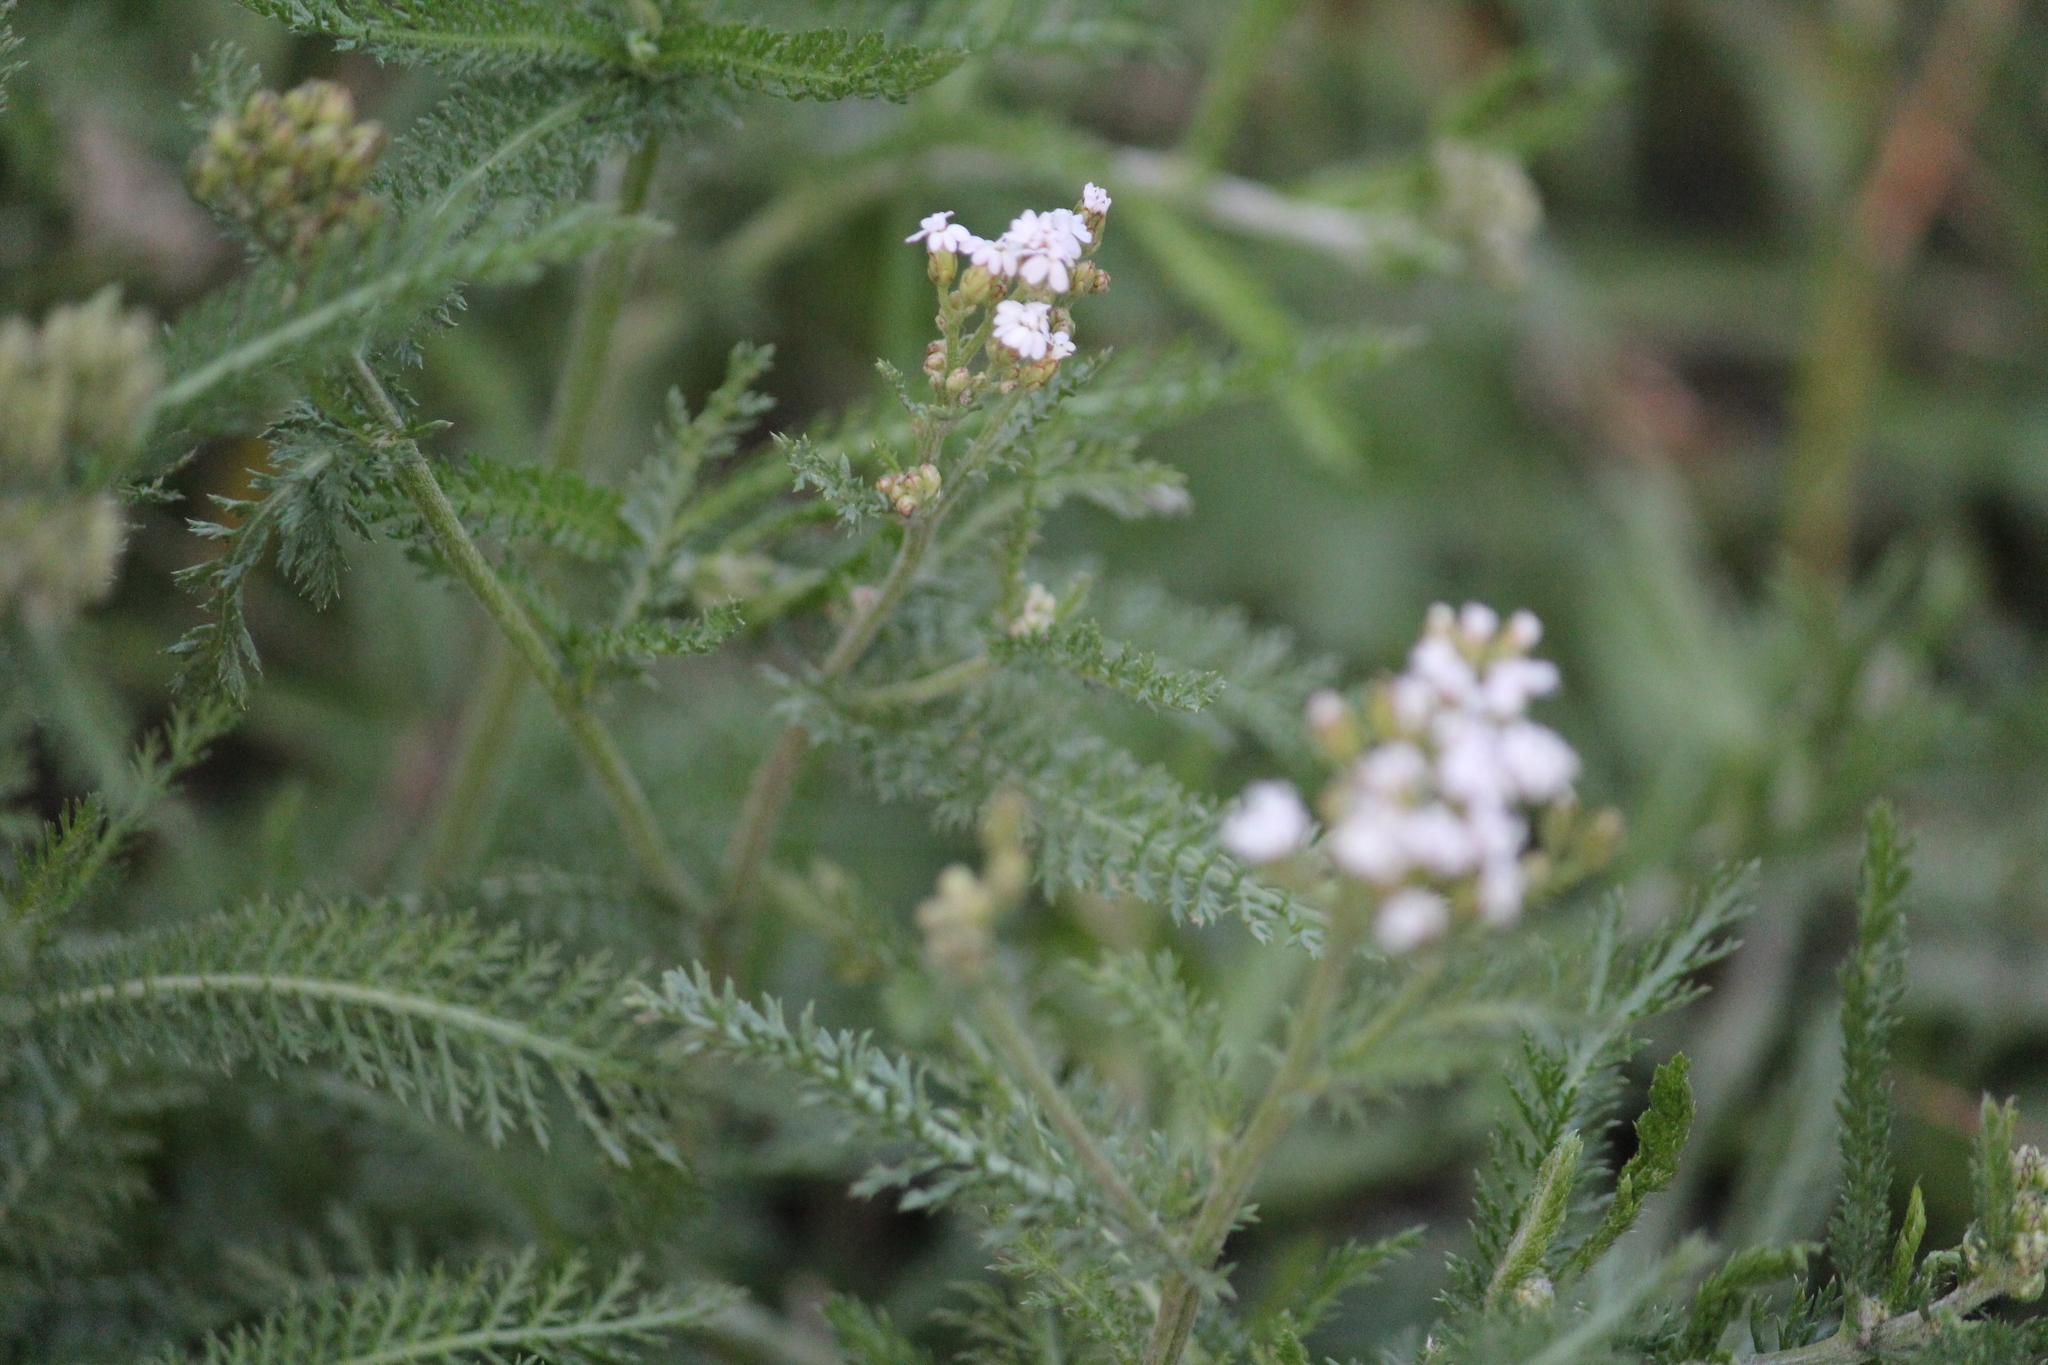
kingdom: Plantae
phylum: Tracheophyta
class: Magnoliopsida
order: Asterales
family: Asteraceae
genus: Achillea
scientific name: Achillea millefolium
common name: Yarrow
